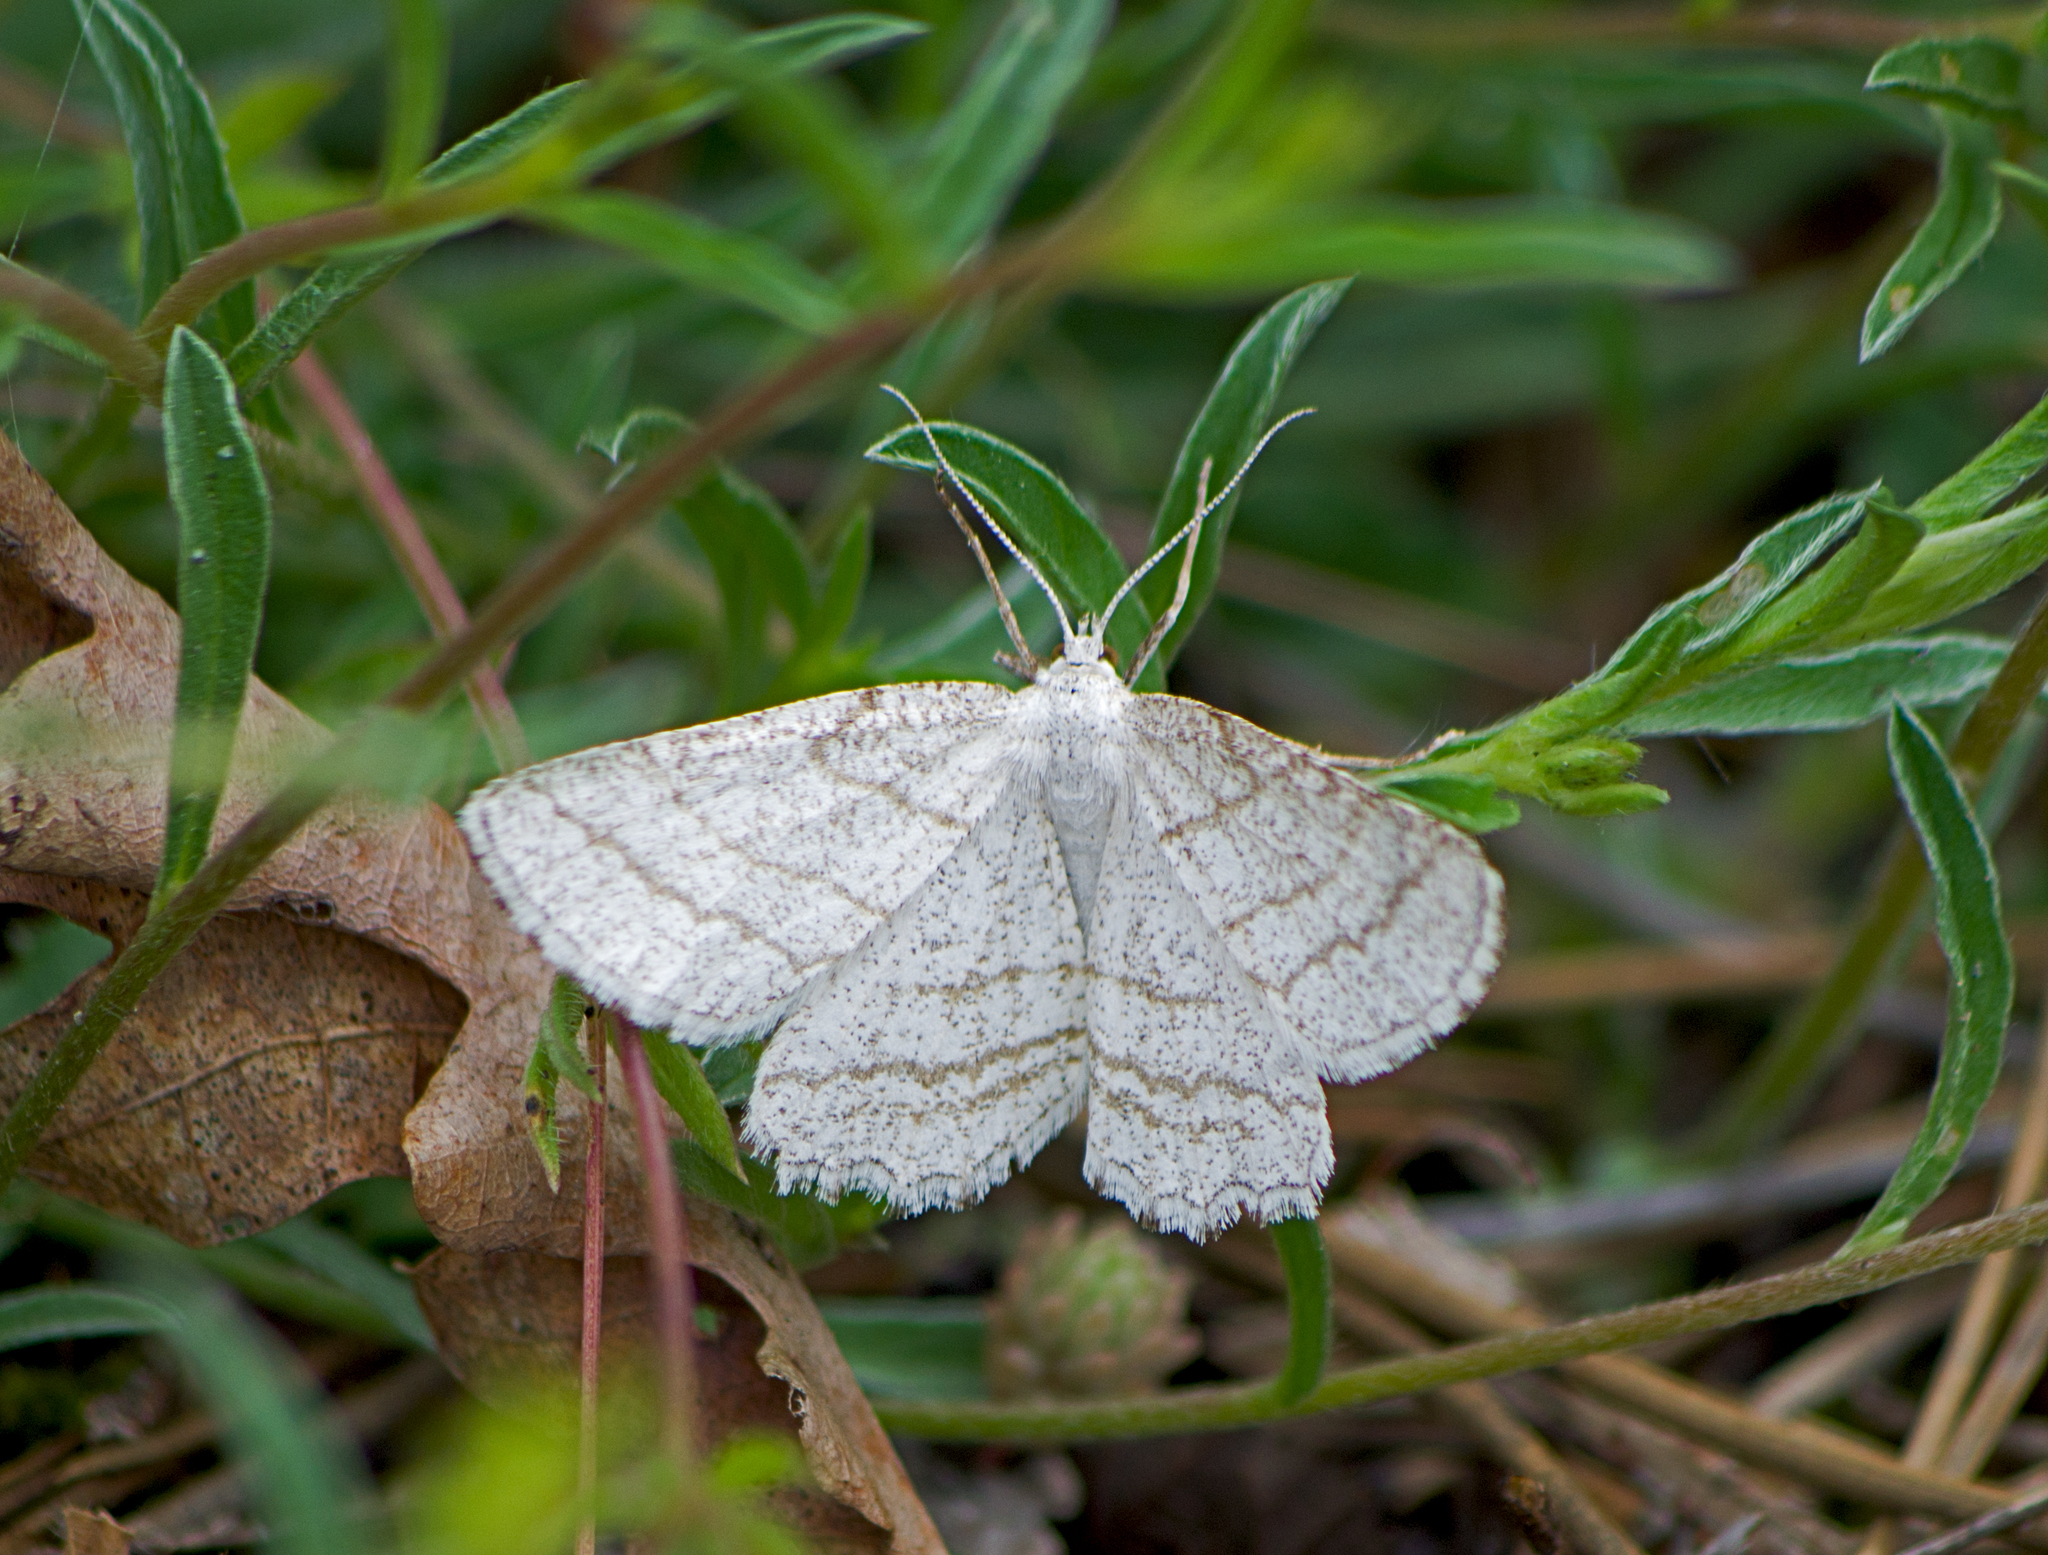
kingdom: Animalia
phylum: Arthropoda
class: Insecta
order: Lepidoptera
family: Geometridae
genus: Perconia
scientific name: Perconia strigillaria
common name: Grass wave
